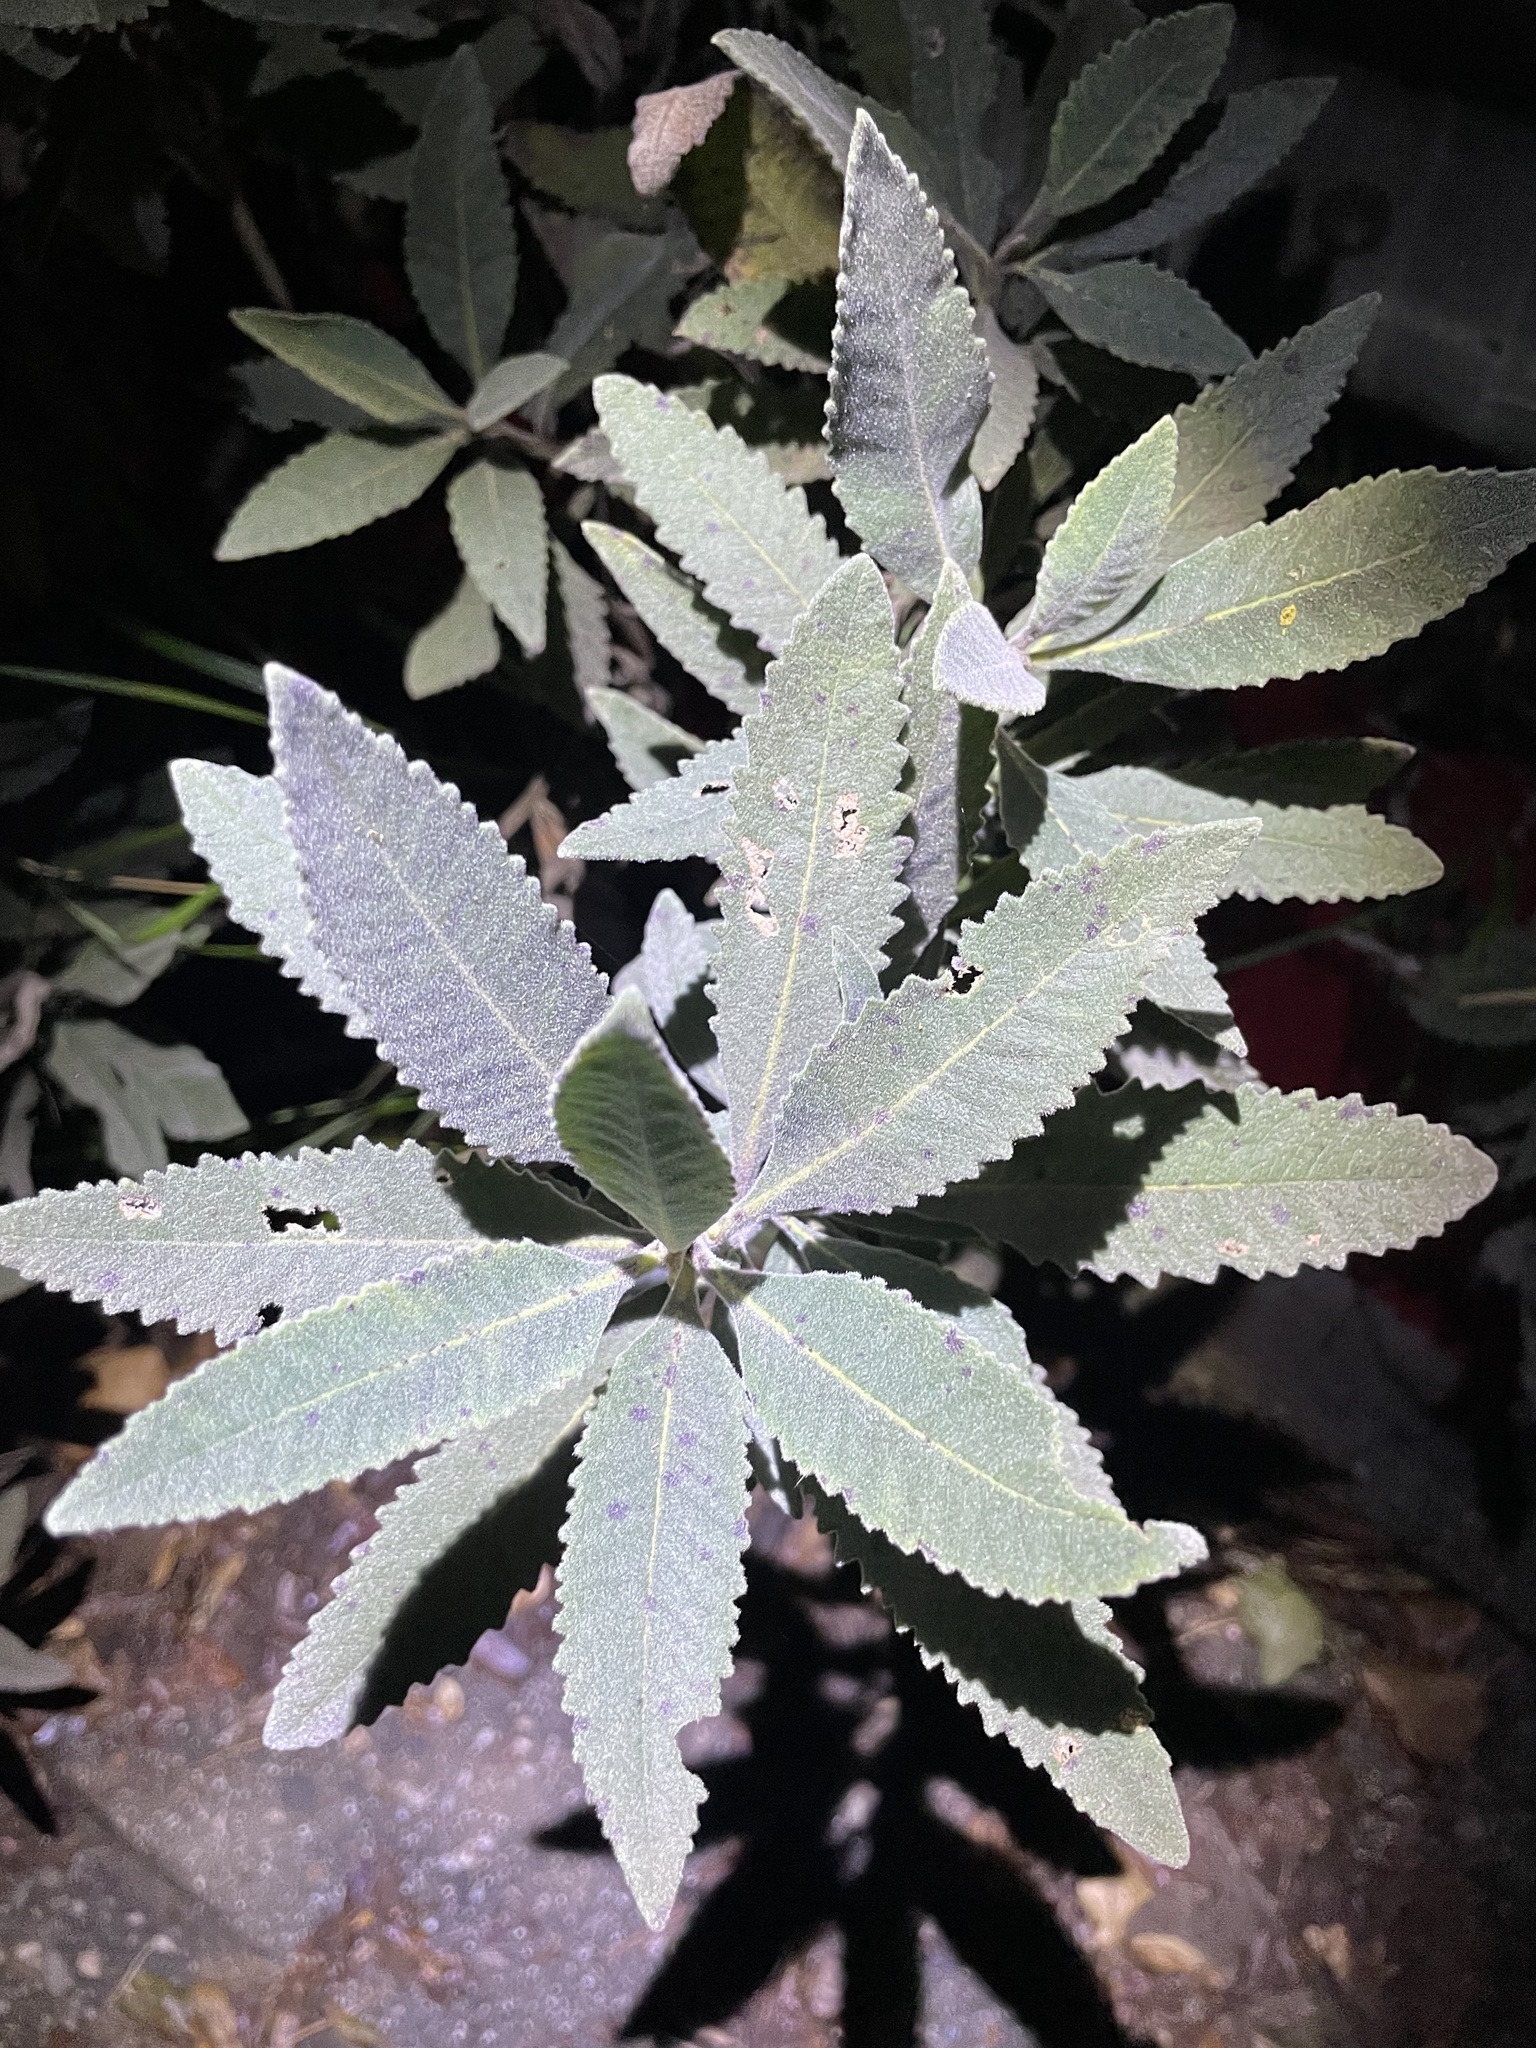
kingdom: Plantae
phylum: Tracheophyta
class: Magnoliopsida
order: Boraginales
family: Namaceae
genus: Eriodictyon
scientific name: Eriodictyon crassifolium
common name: Thick-leaf yerba-santa
